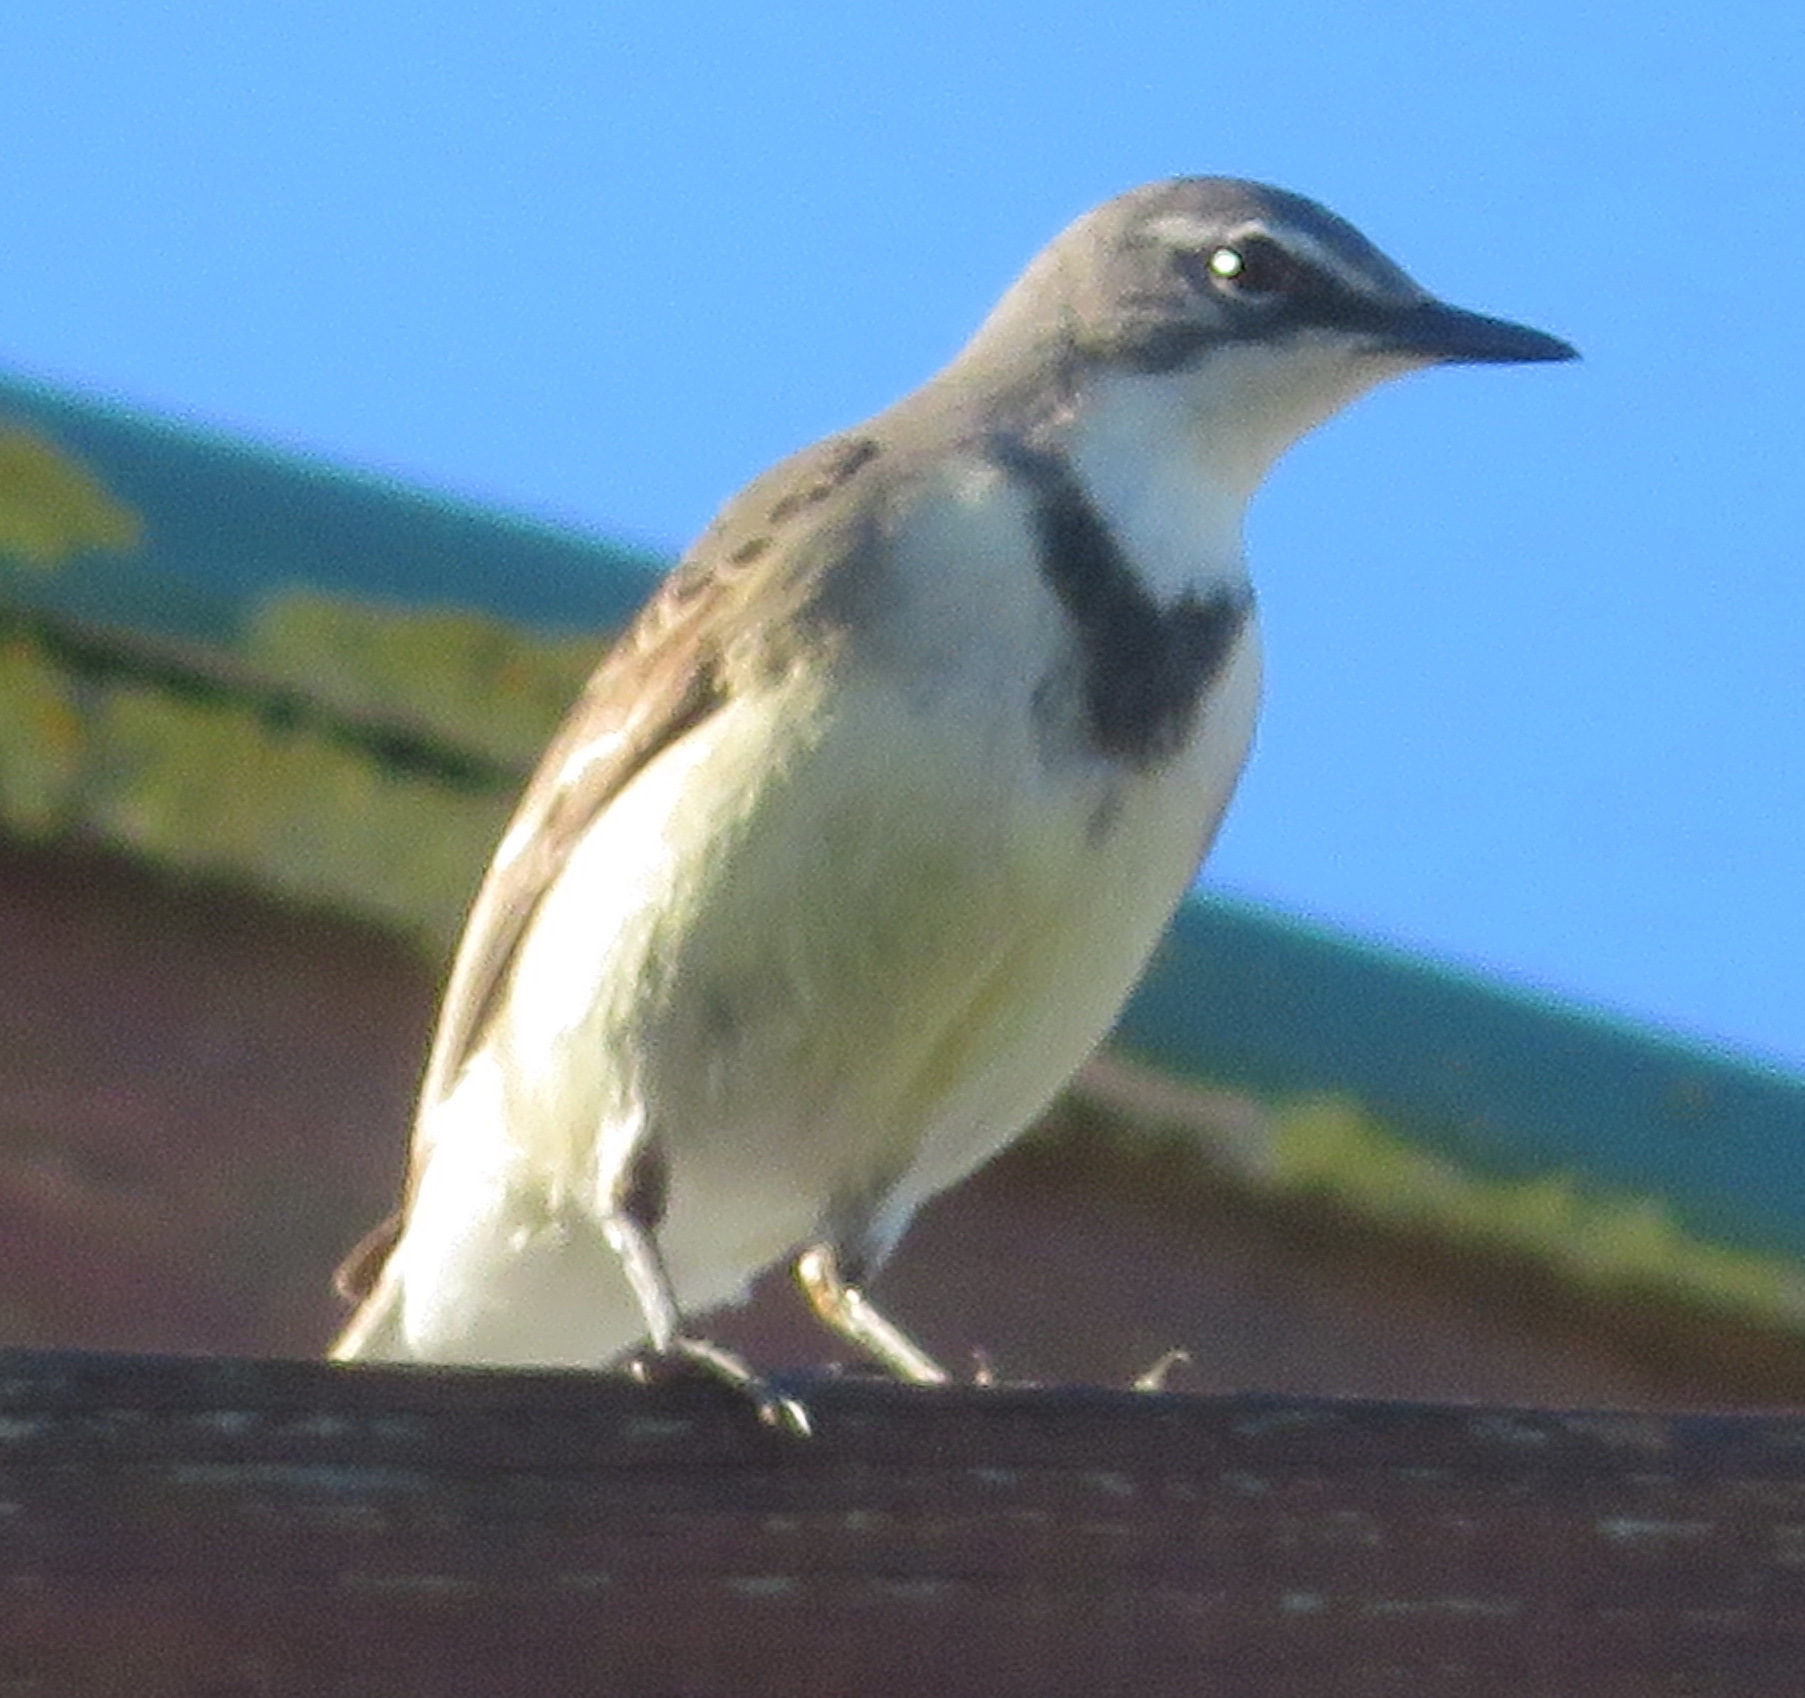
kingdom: Animalia
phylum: Chordata
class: Aves
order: Passeriformes
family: Motacillidae
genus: Motacilla
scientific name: Motacilla capensis
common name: Cape wagtail
